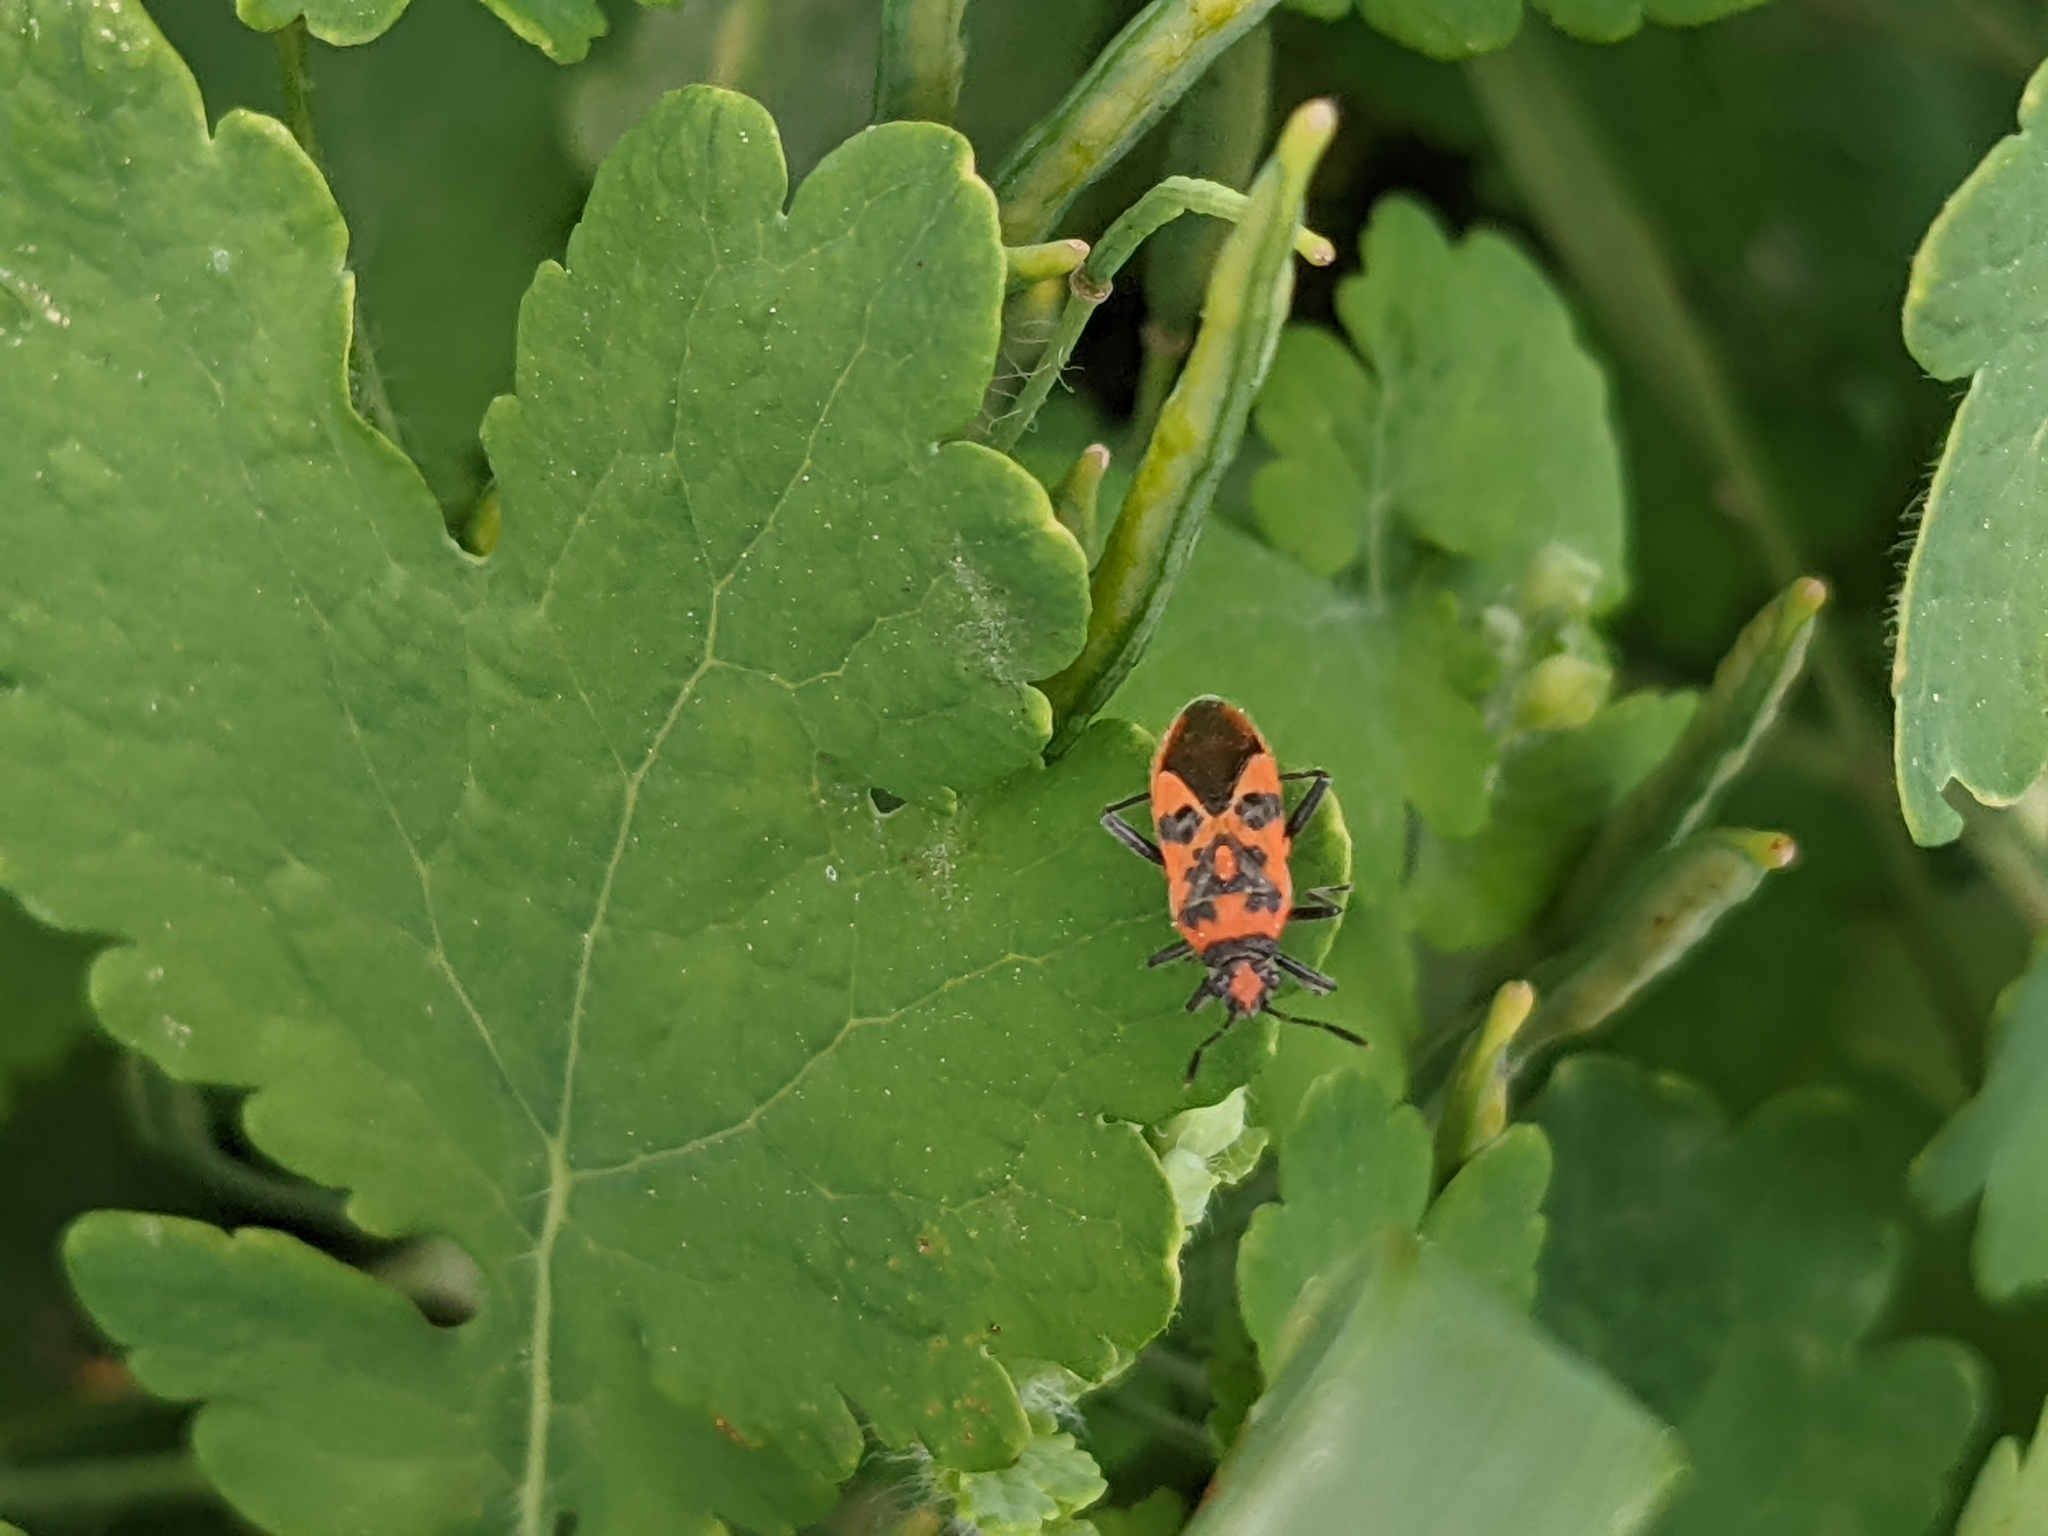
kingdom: Animalia
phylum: Arthropoda
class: Insecta
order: Hemiptera
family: Rhopalidae
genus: Corizus
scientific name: Corizus hyoscyami
